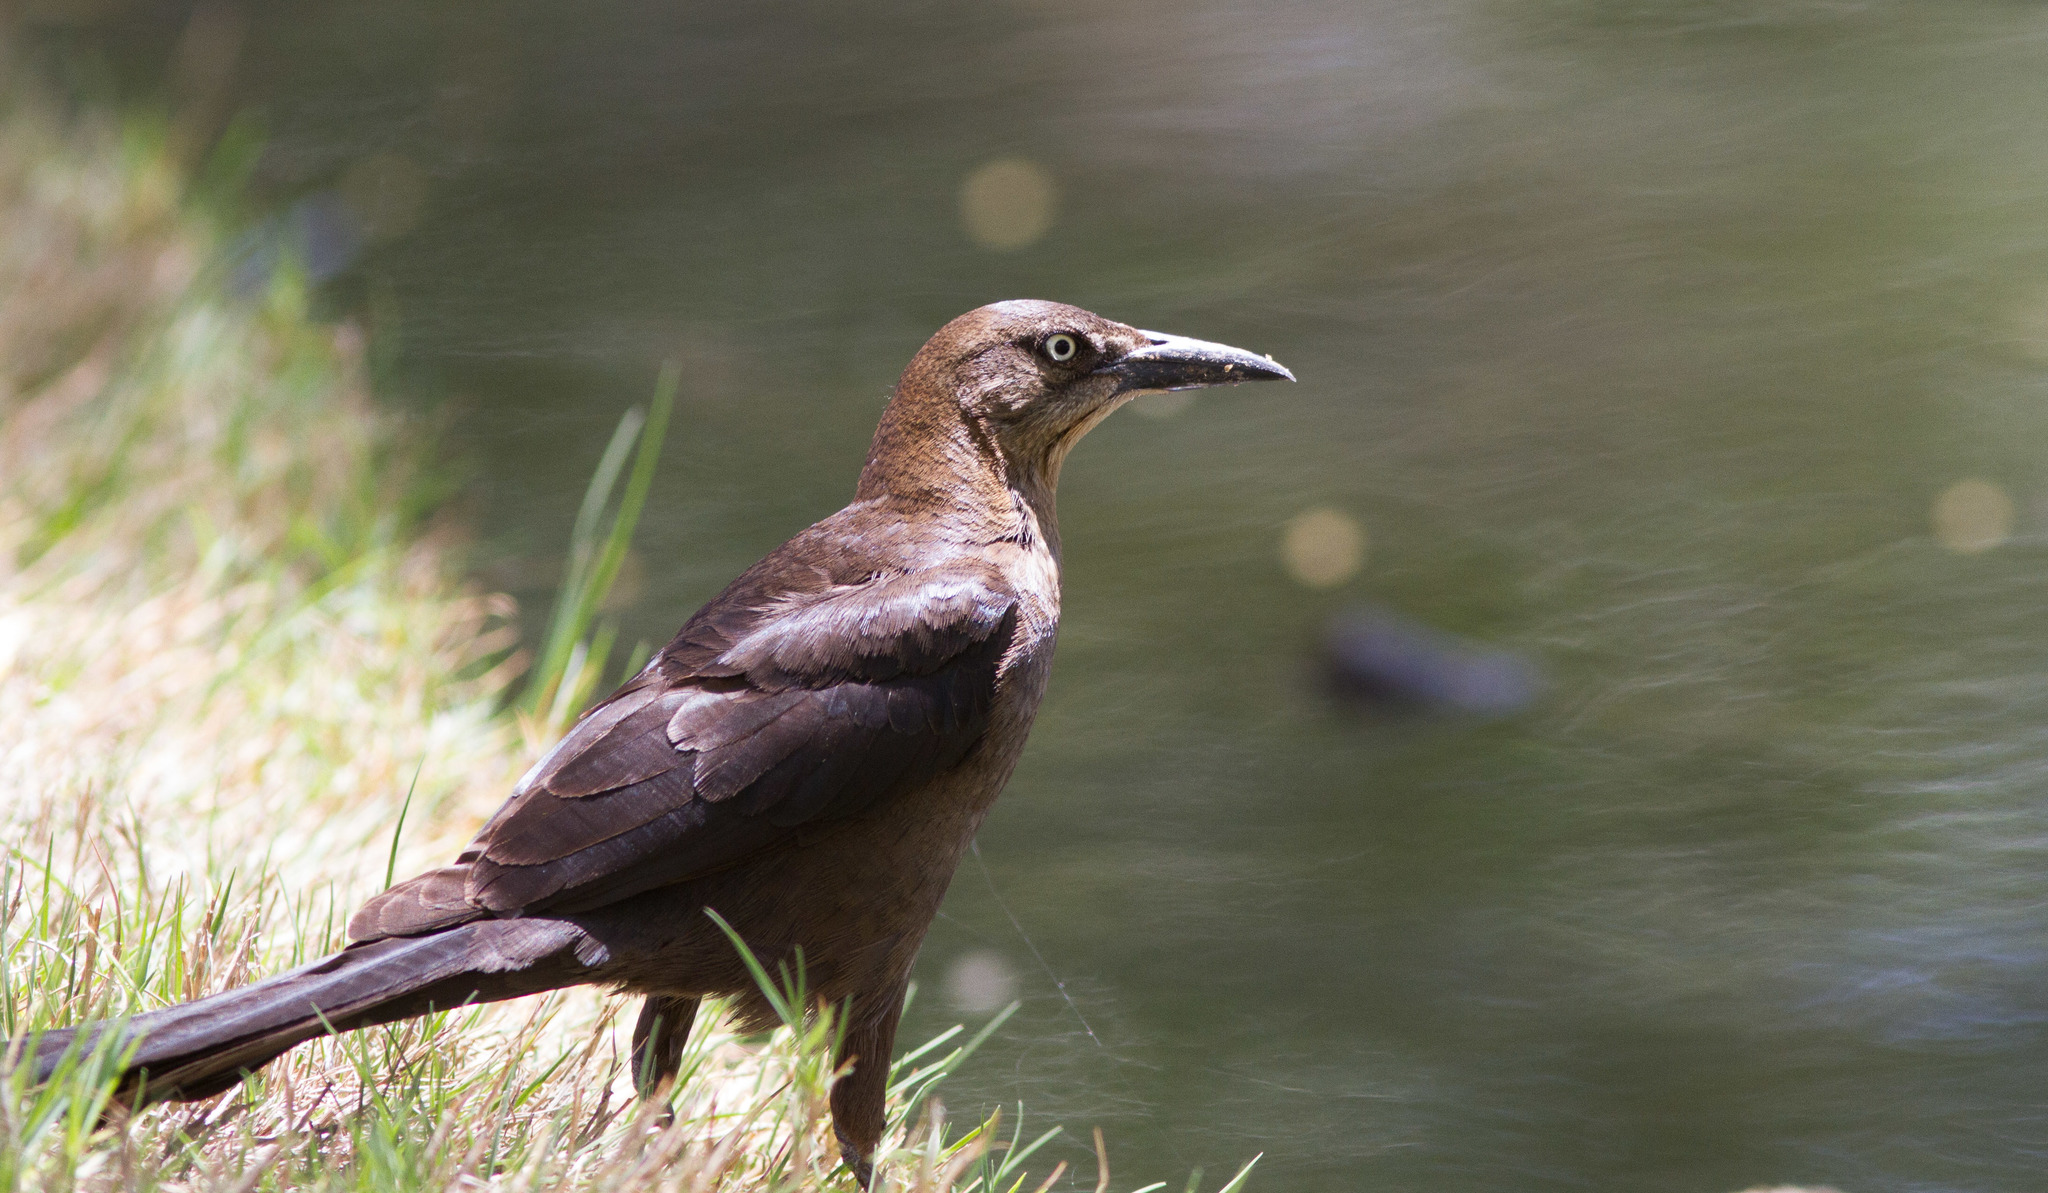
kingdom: Animalia
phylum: Chordata
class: Aves
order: Passeriformes
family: Icteridae
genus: Quiscalus
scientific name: Quiscalus mexicanus
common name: Great-tailed grackle
